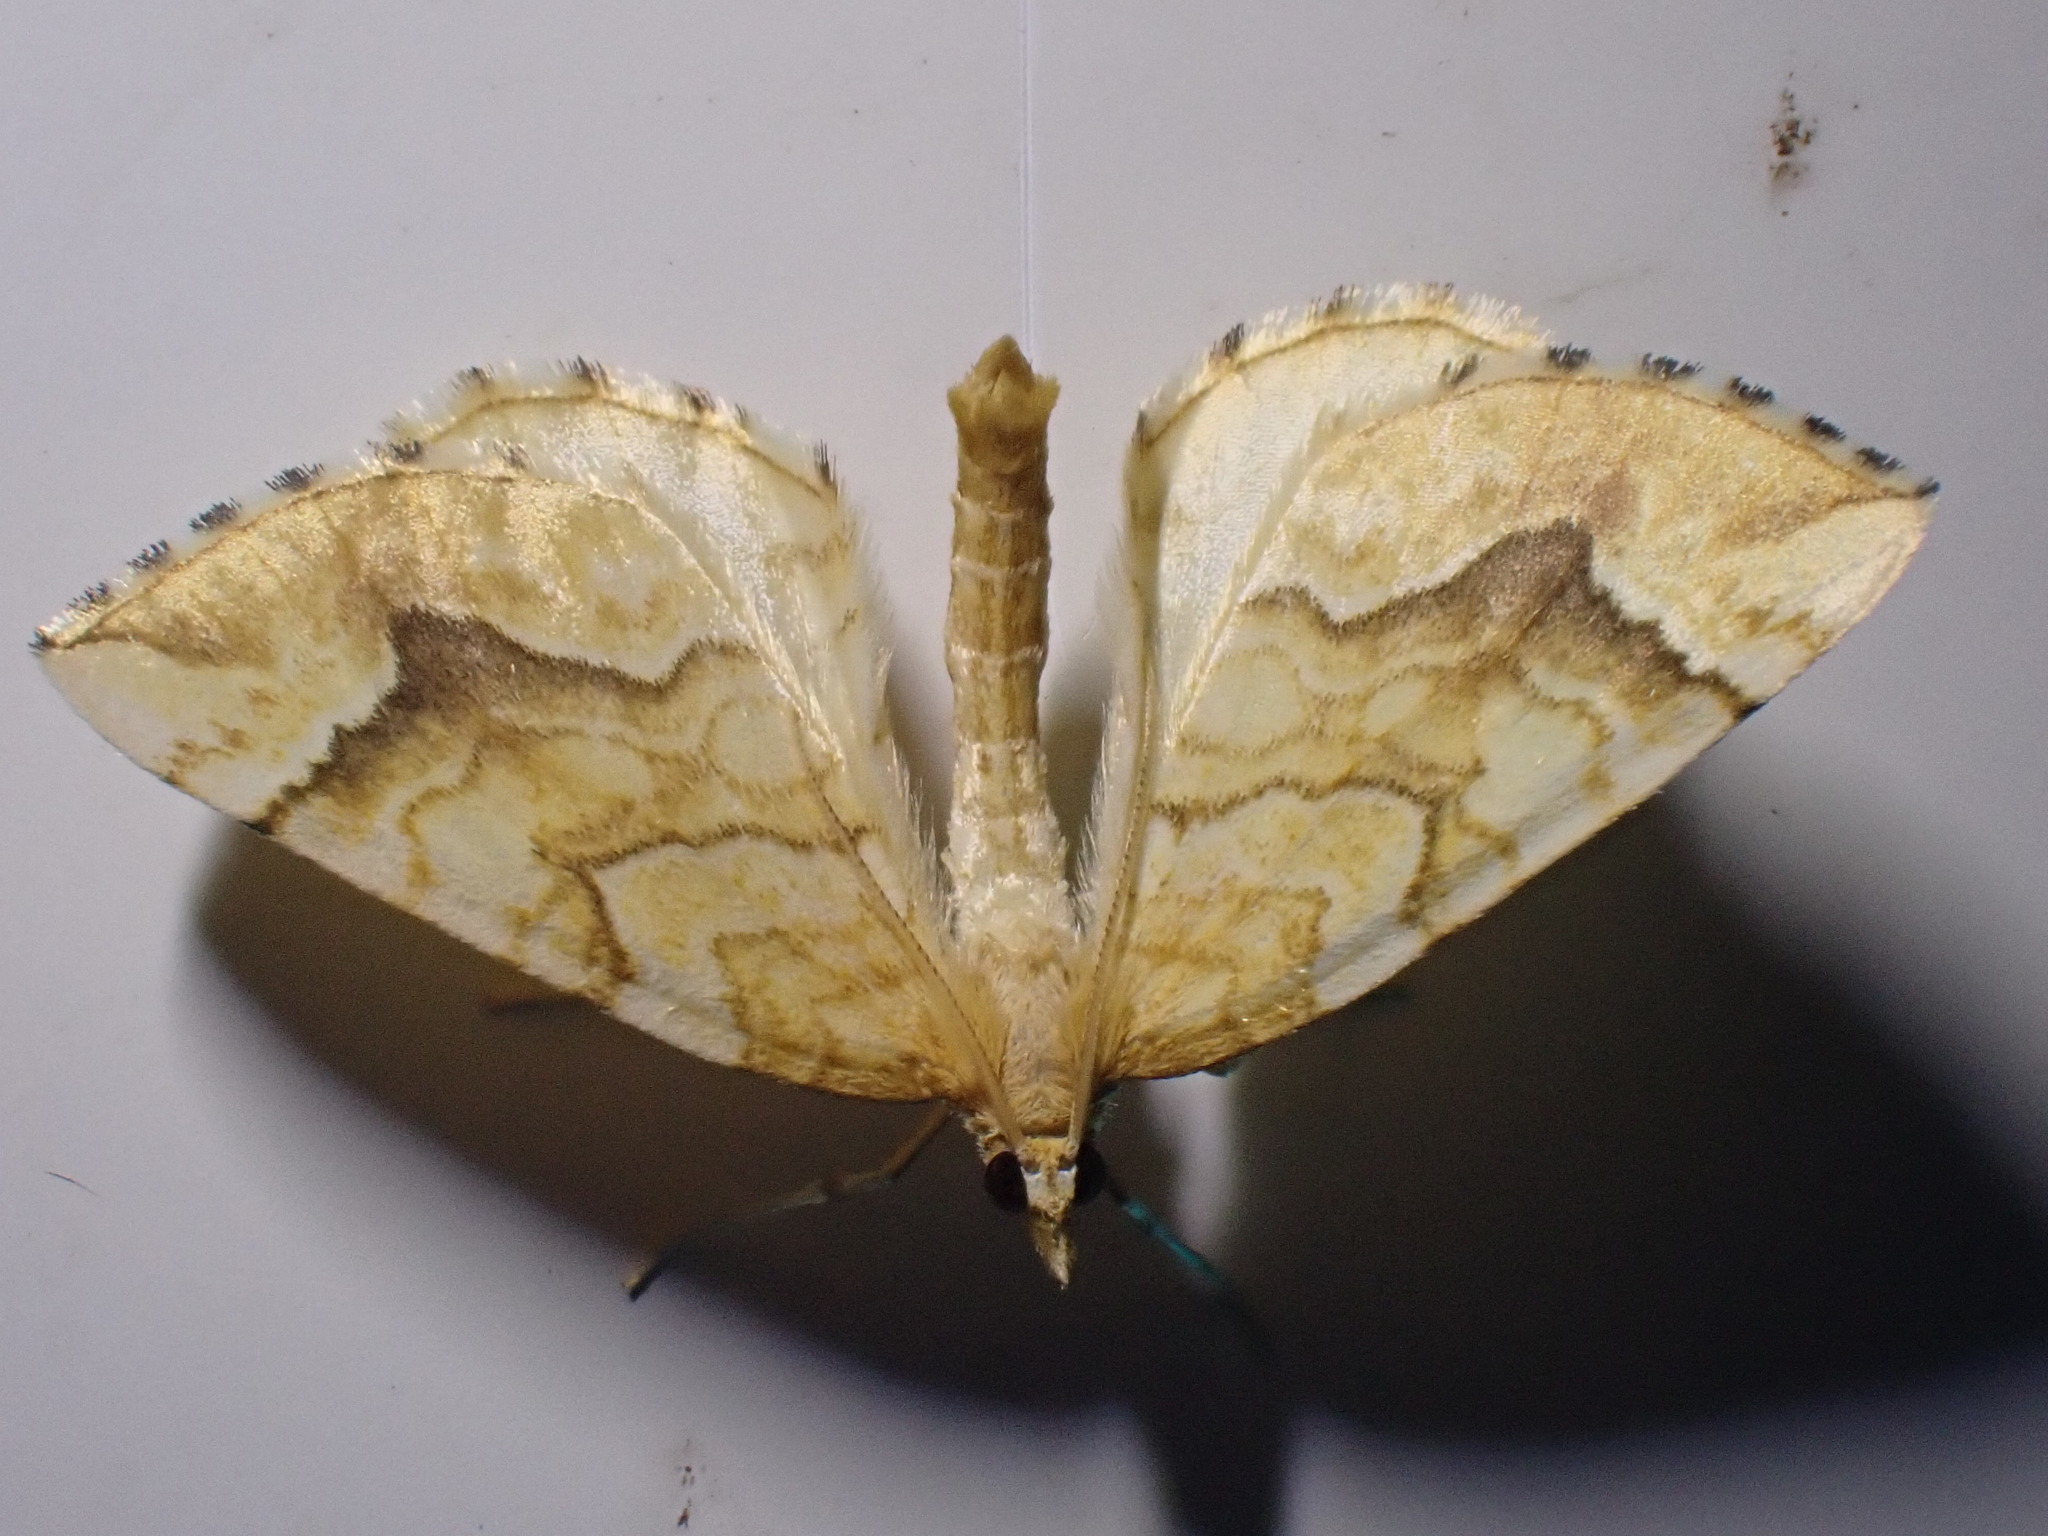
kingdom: Animalia
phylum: Arthropoda
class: Insecta
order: Lepidoptera
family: Geometridae
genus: Eulithis
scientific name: Eulithis mellinata
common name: Spinach
